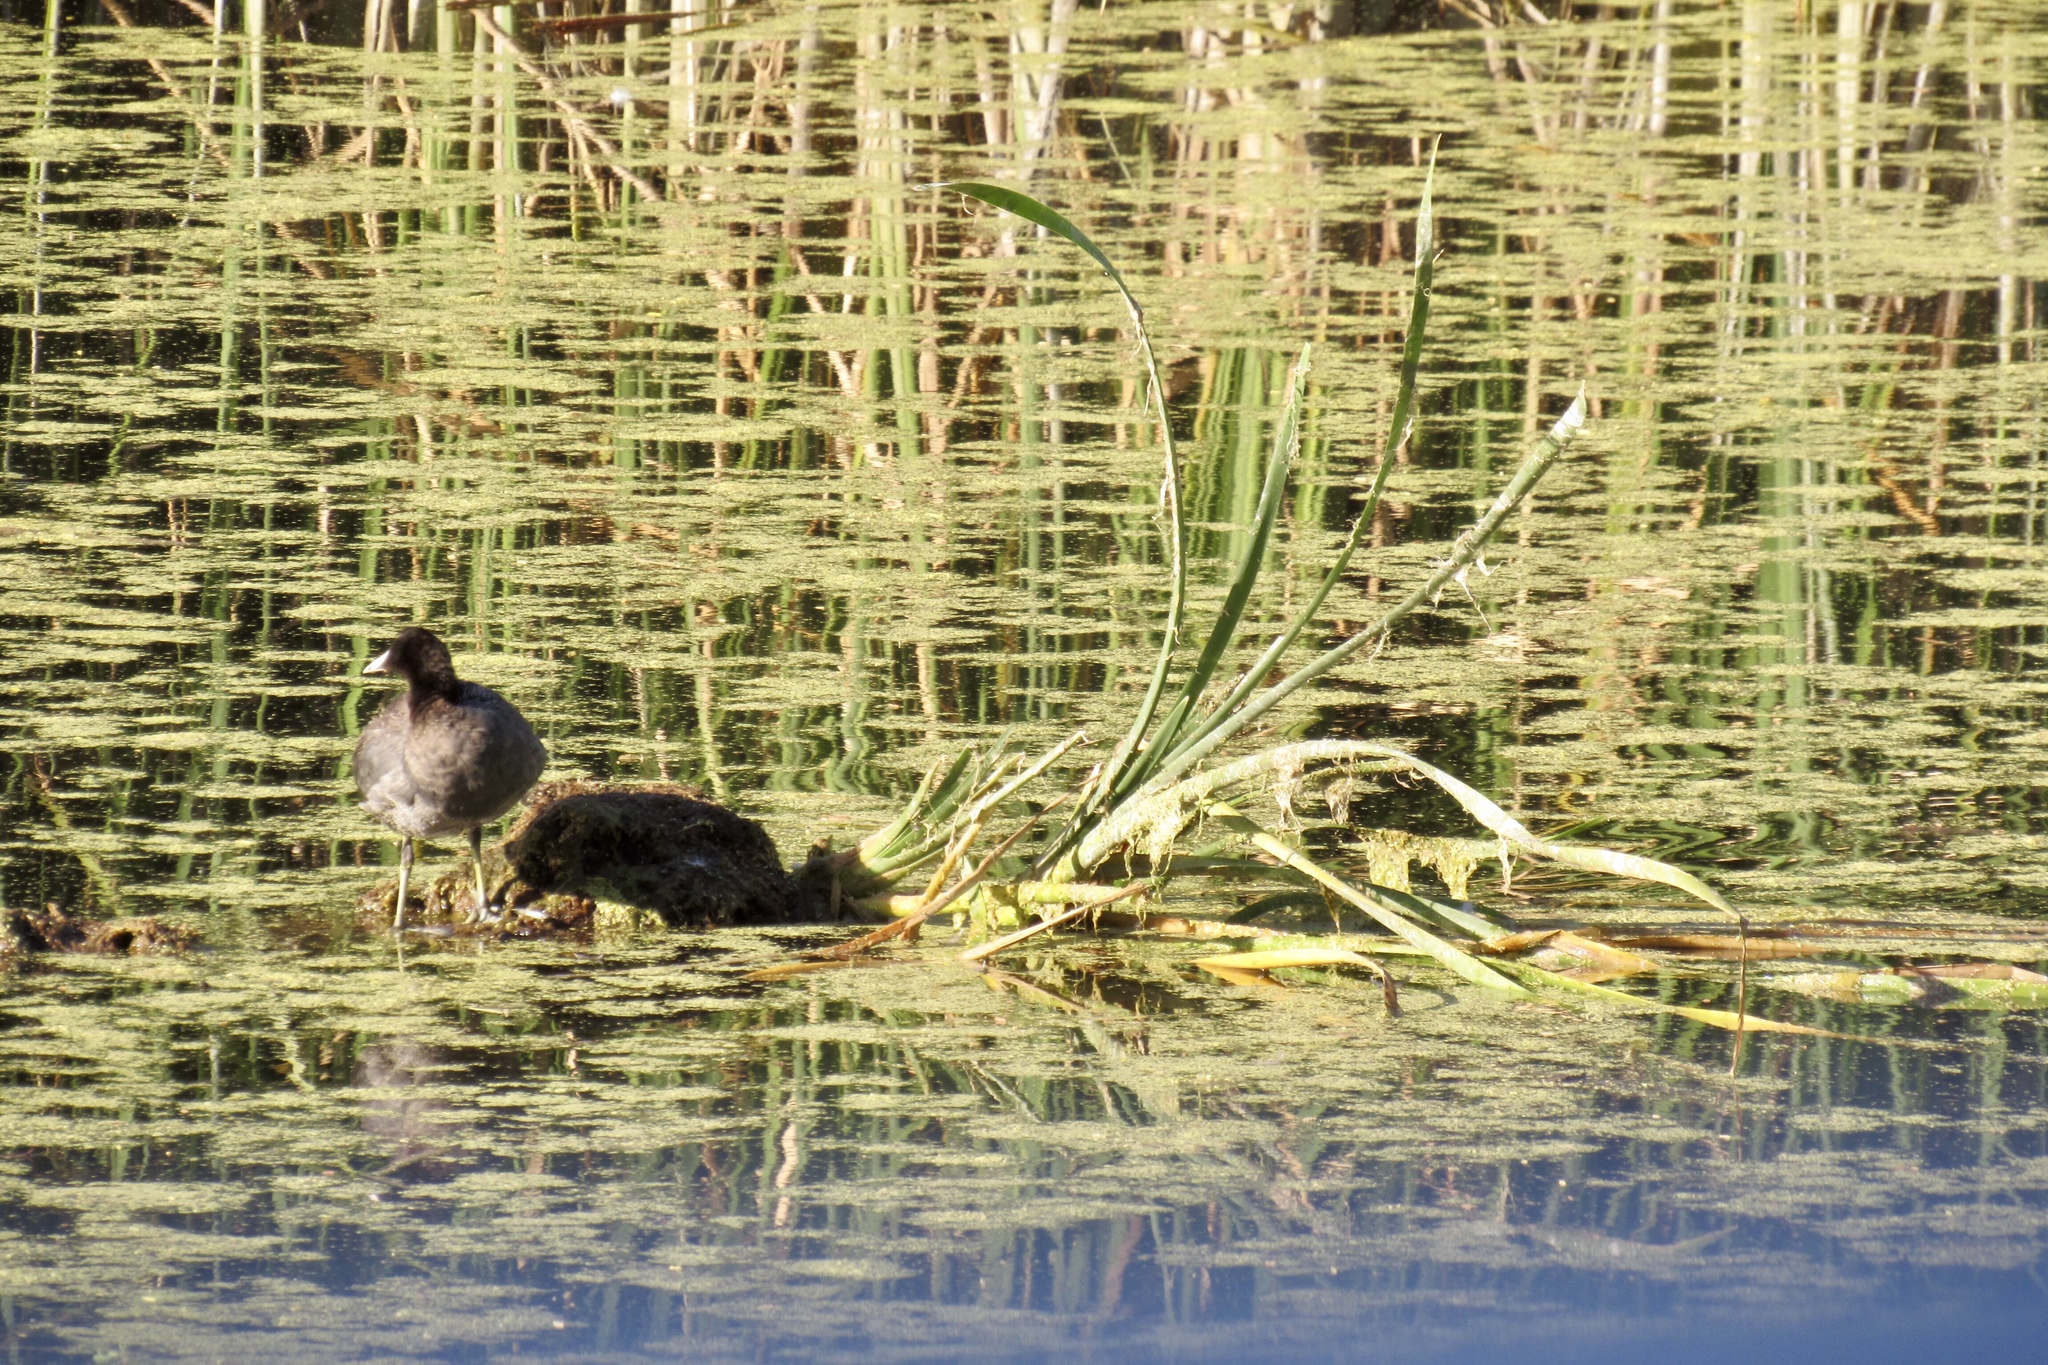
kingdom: Animalia
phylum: Chordata
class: Aves
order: Gruiformes
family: Rallidae
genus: Fulica
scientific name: Fulica americana
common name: American coot
